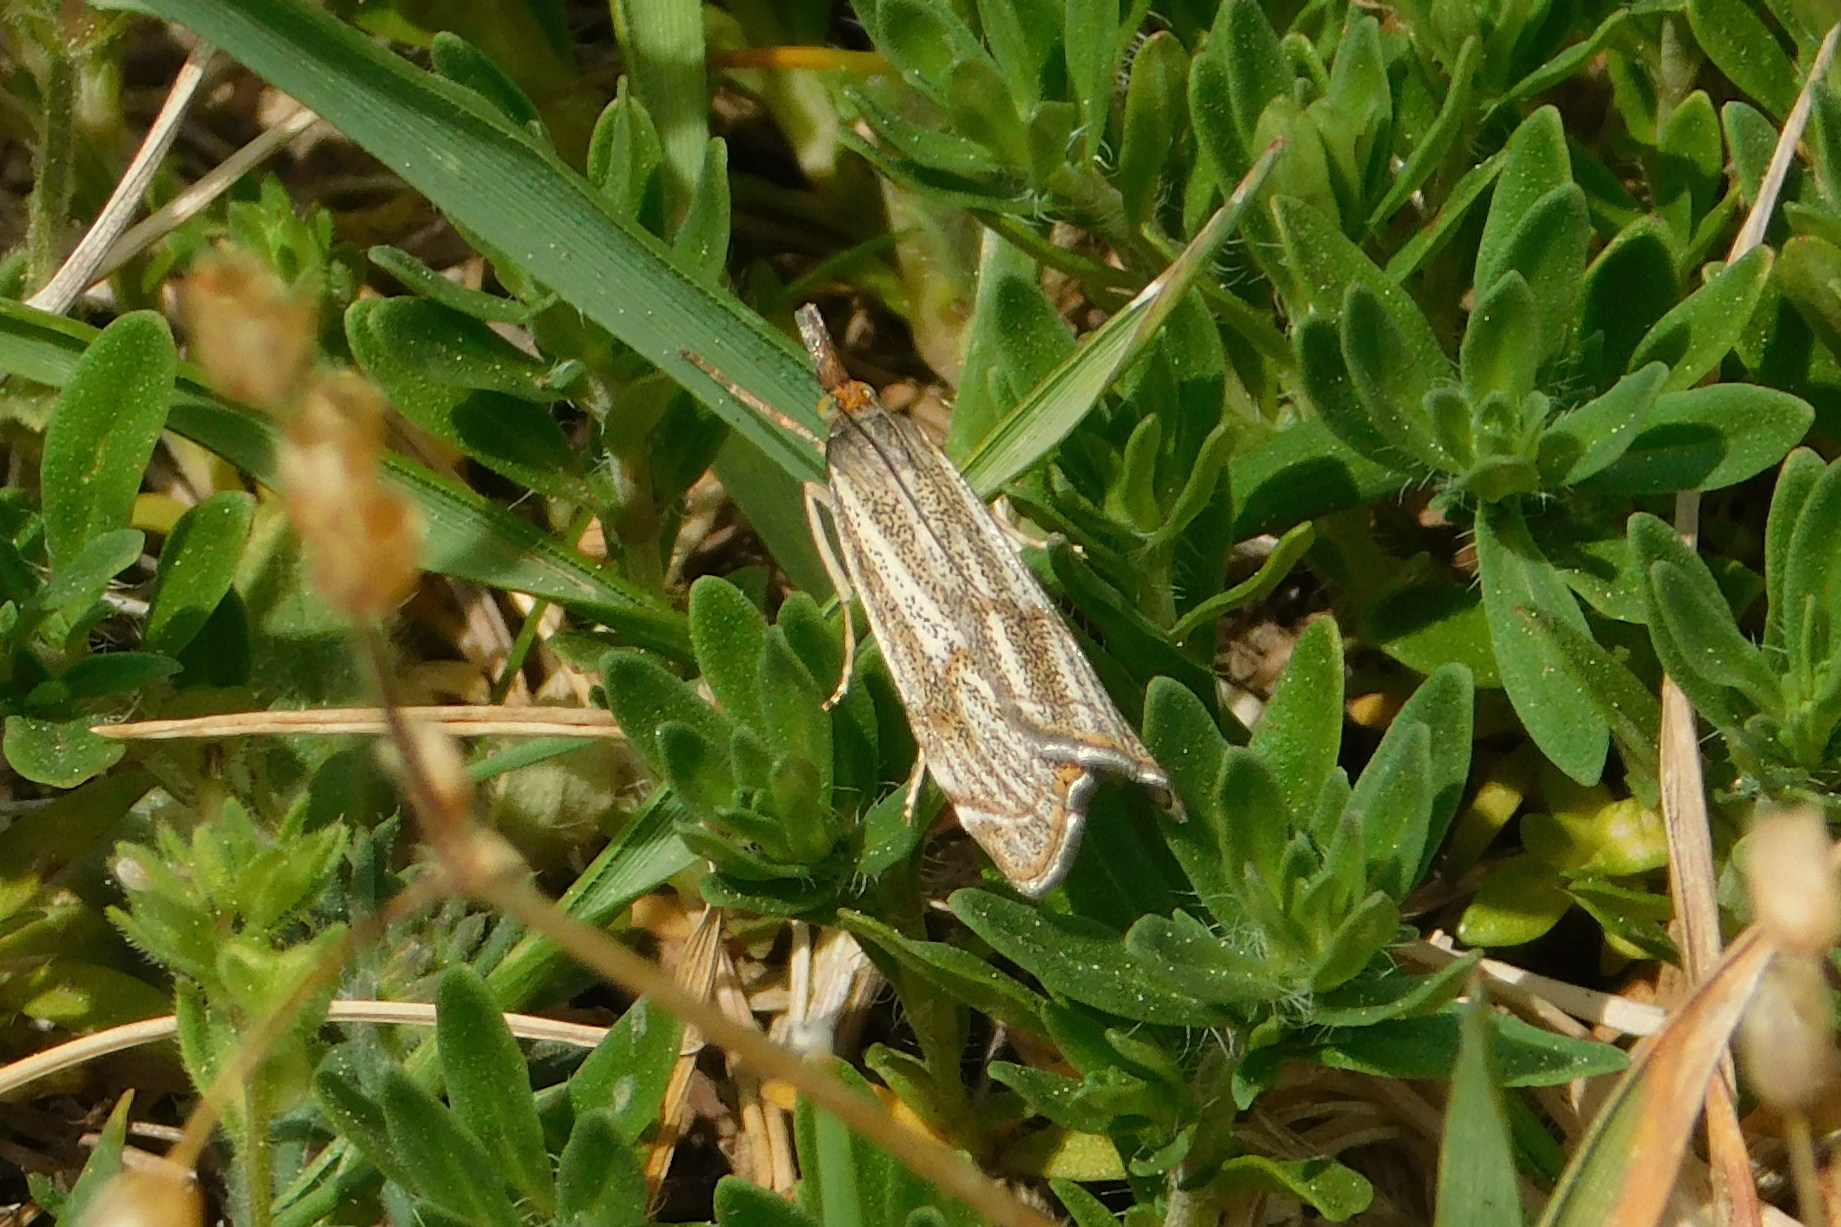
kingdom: Animalia
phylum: Arthropoda
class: Insecta
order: Lepidoptera
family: Crambidae
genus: Thisanotia
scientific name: Thisanotia chrysonuchella
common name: Powdered grass-veneer
